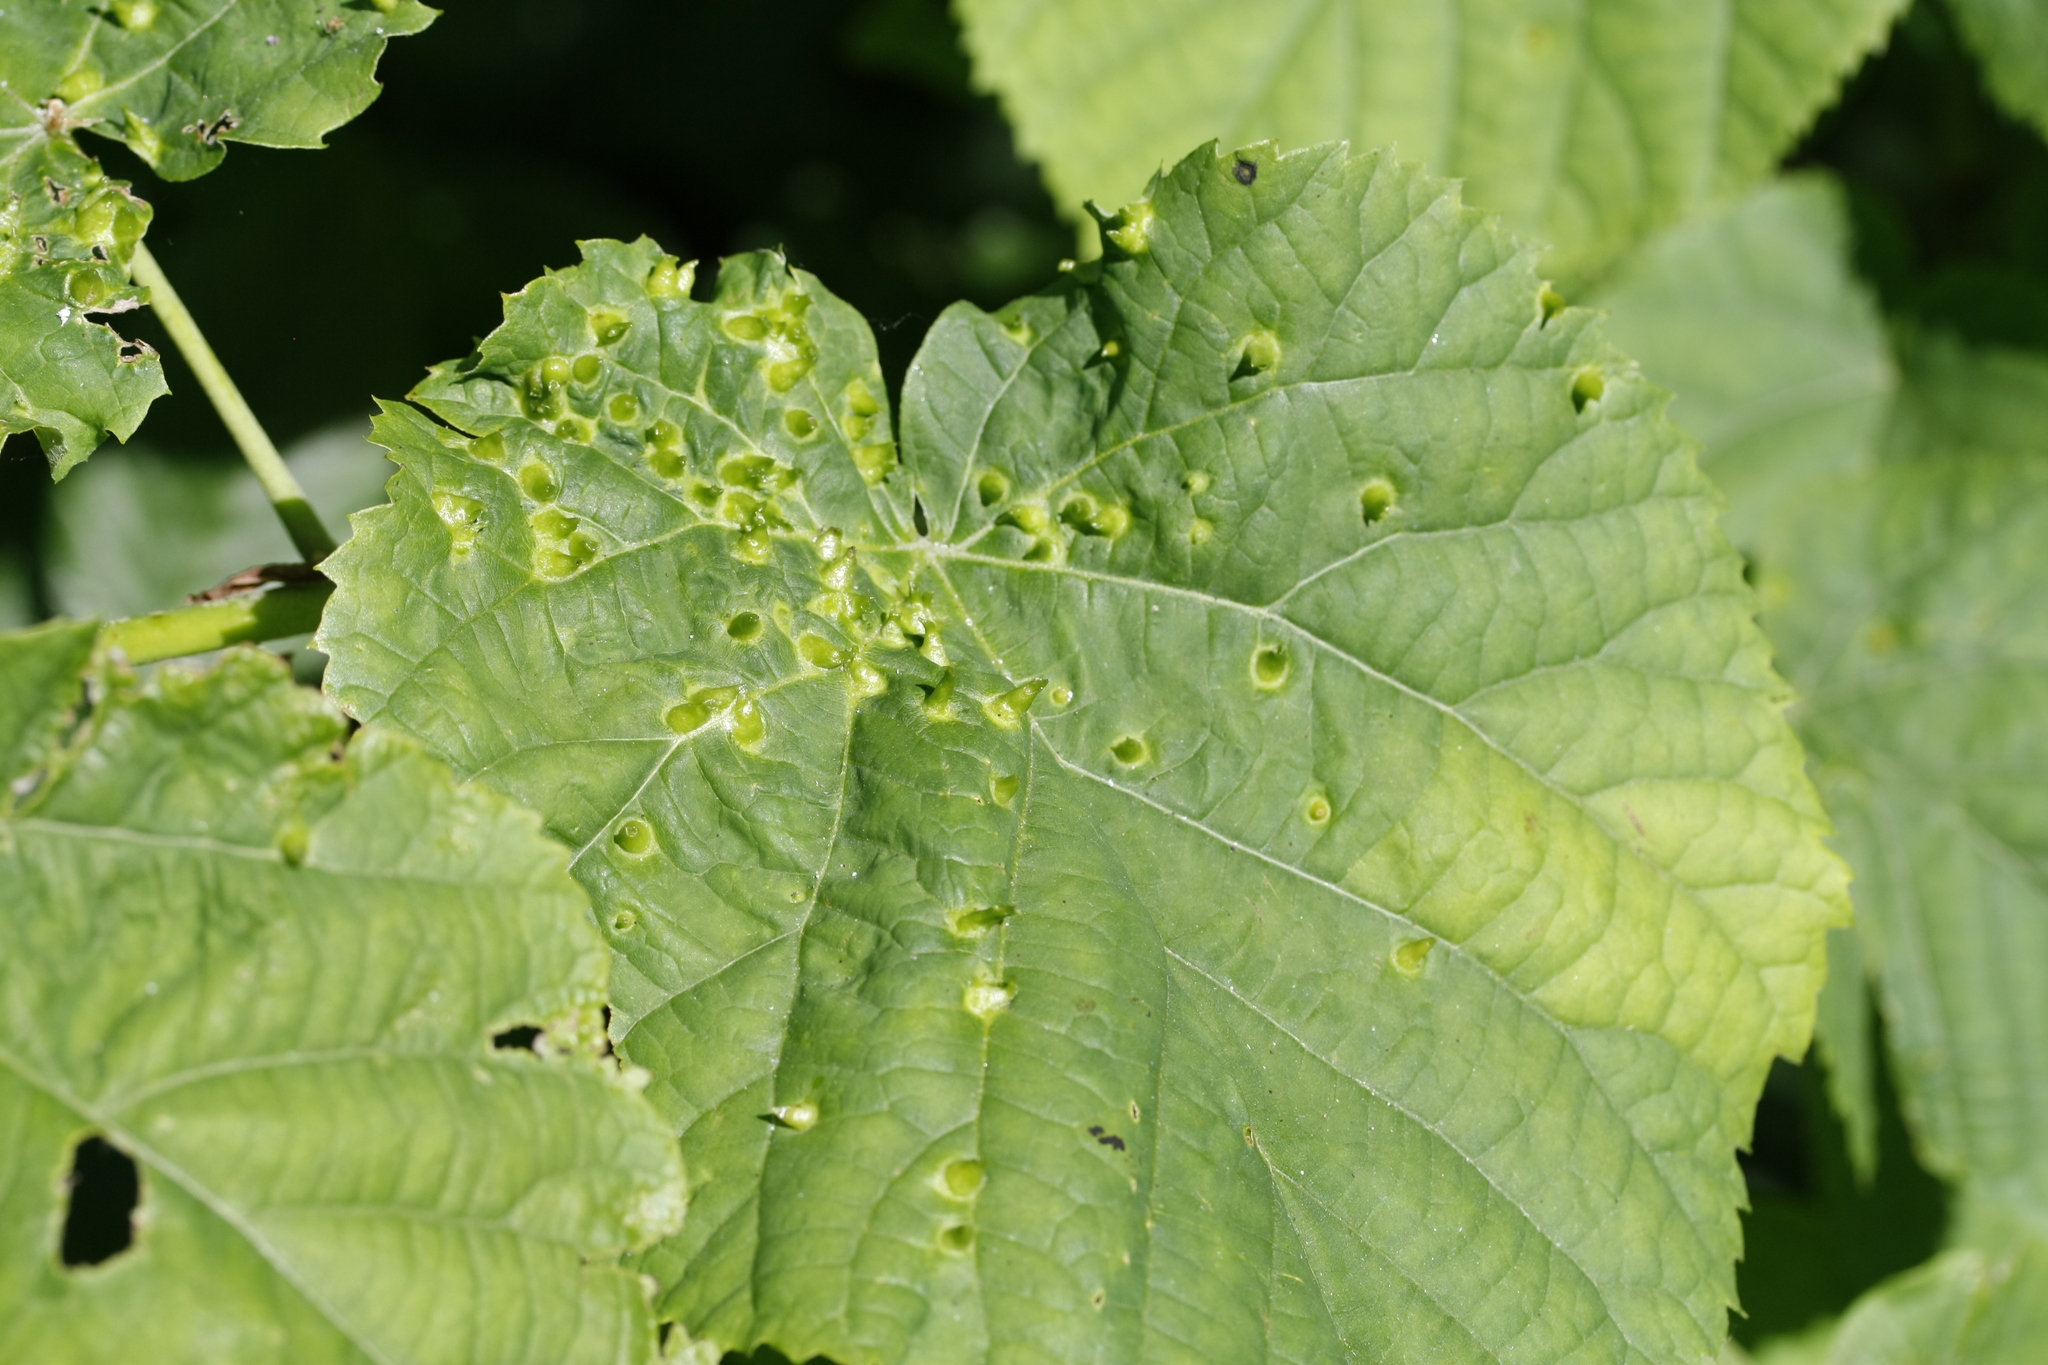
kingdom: Animalia
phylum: Arthropoda
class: Arachnida
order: Trombidiformes
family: Eriophyidae
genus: Eriophyes
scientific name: Eriophyes tiliae
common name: Red nail gall mite
